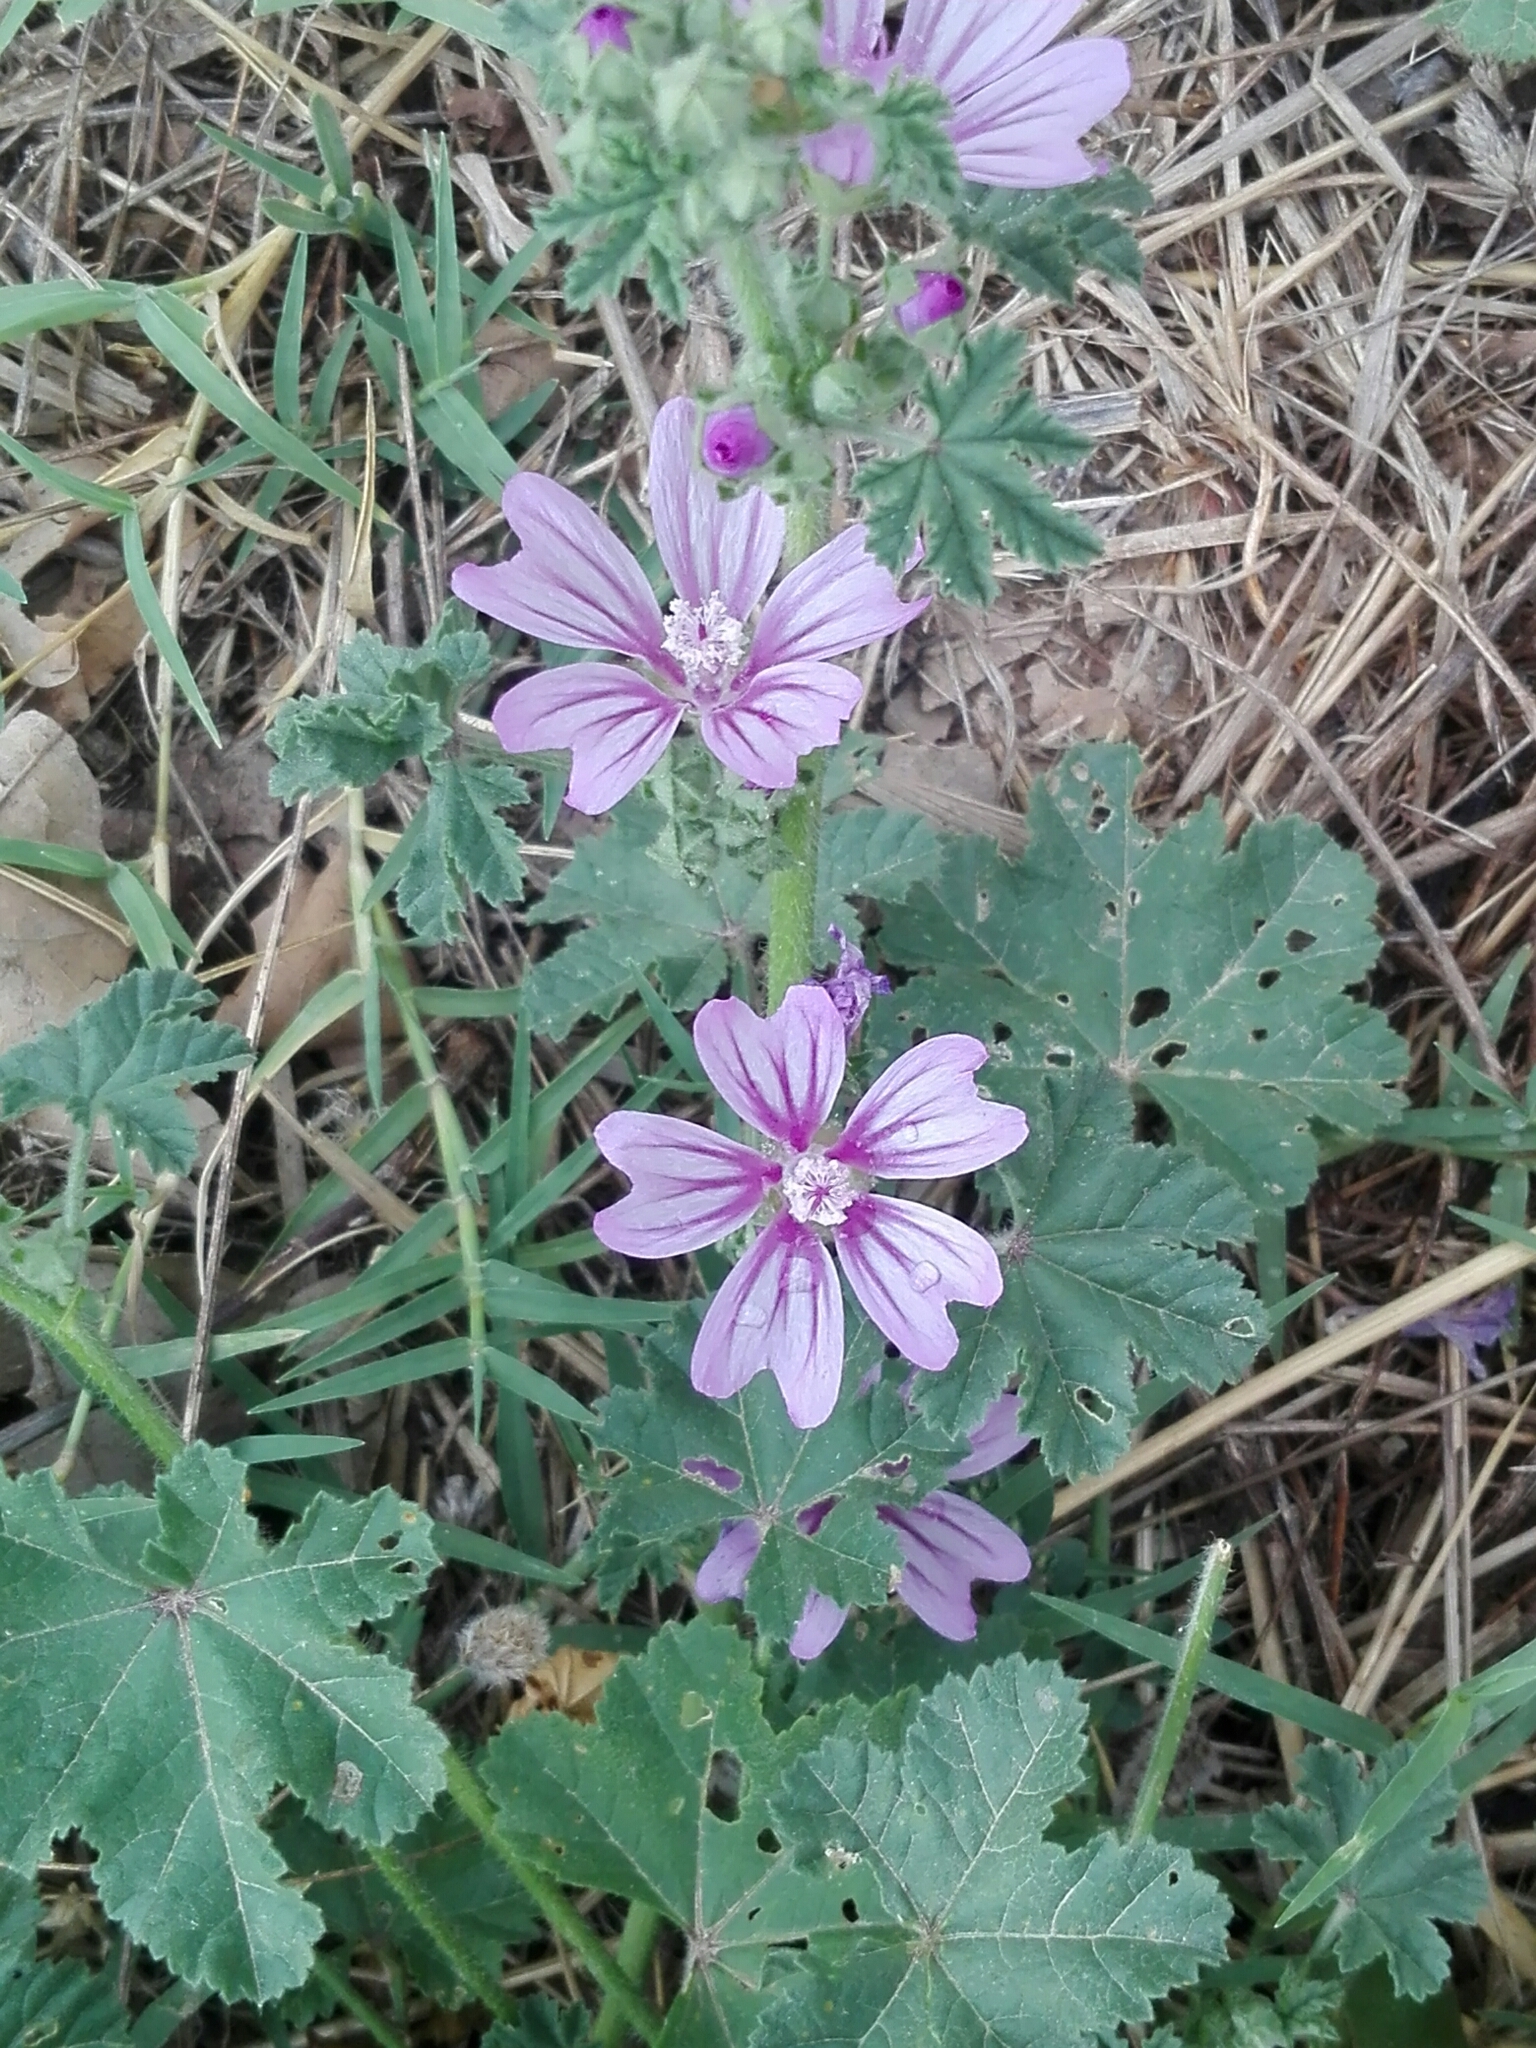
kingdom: Plantae
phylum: Tracheophyta
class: Magnoliopsida
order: Malvales
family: Malvaceae
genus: Malva
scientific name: Malva sylvestris
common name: Common mallow
